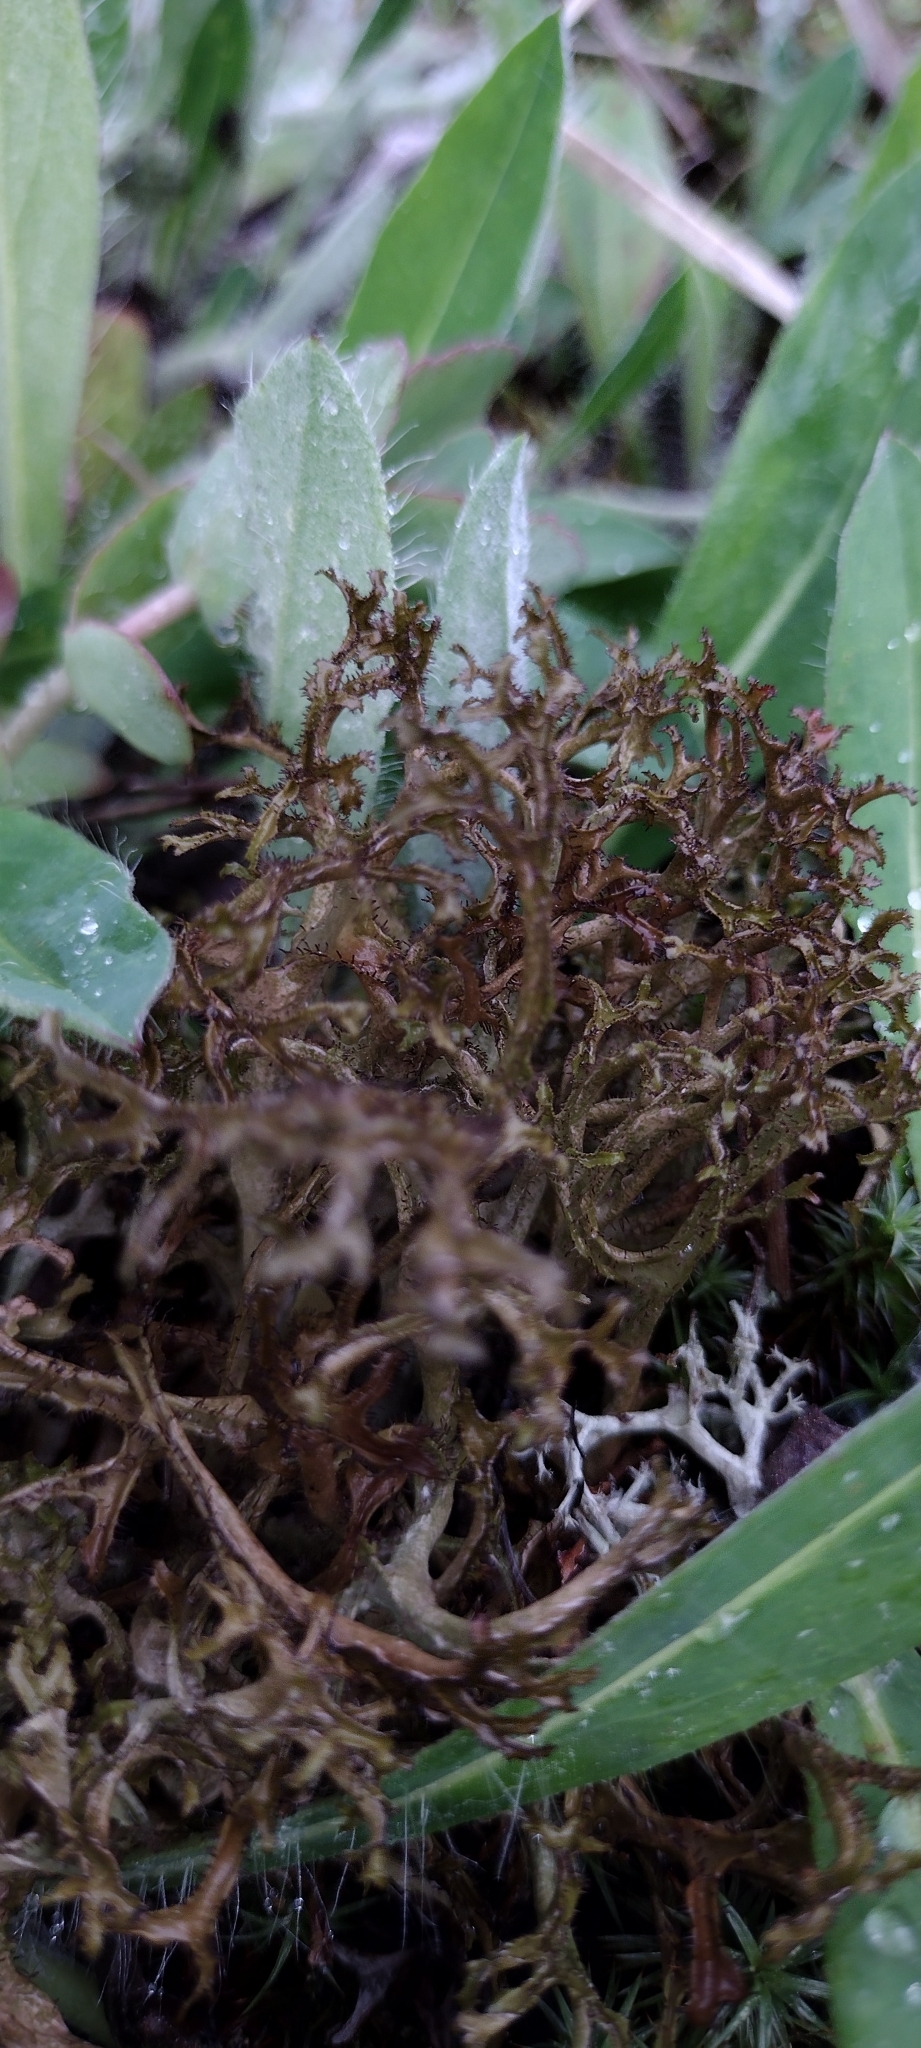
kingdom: Fungi
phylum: Ascomycota
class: Lecanoromycetes
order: Lecanorales
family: Parmeliaceae
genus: Cetraria
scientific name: Cetraria ericetorum
